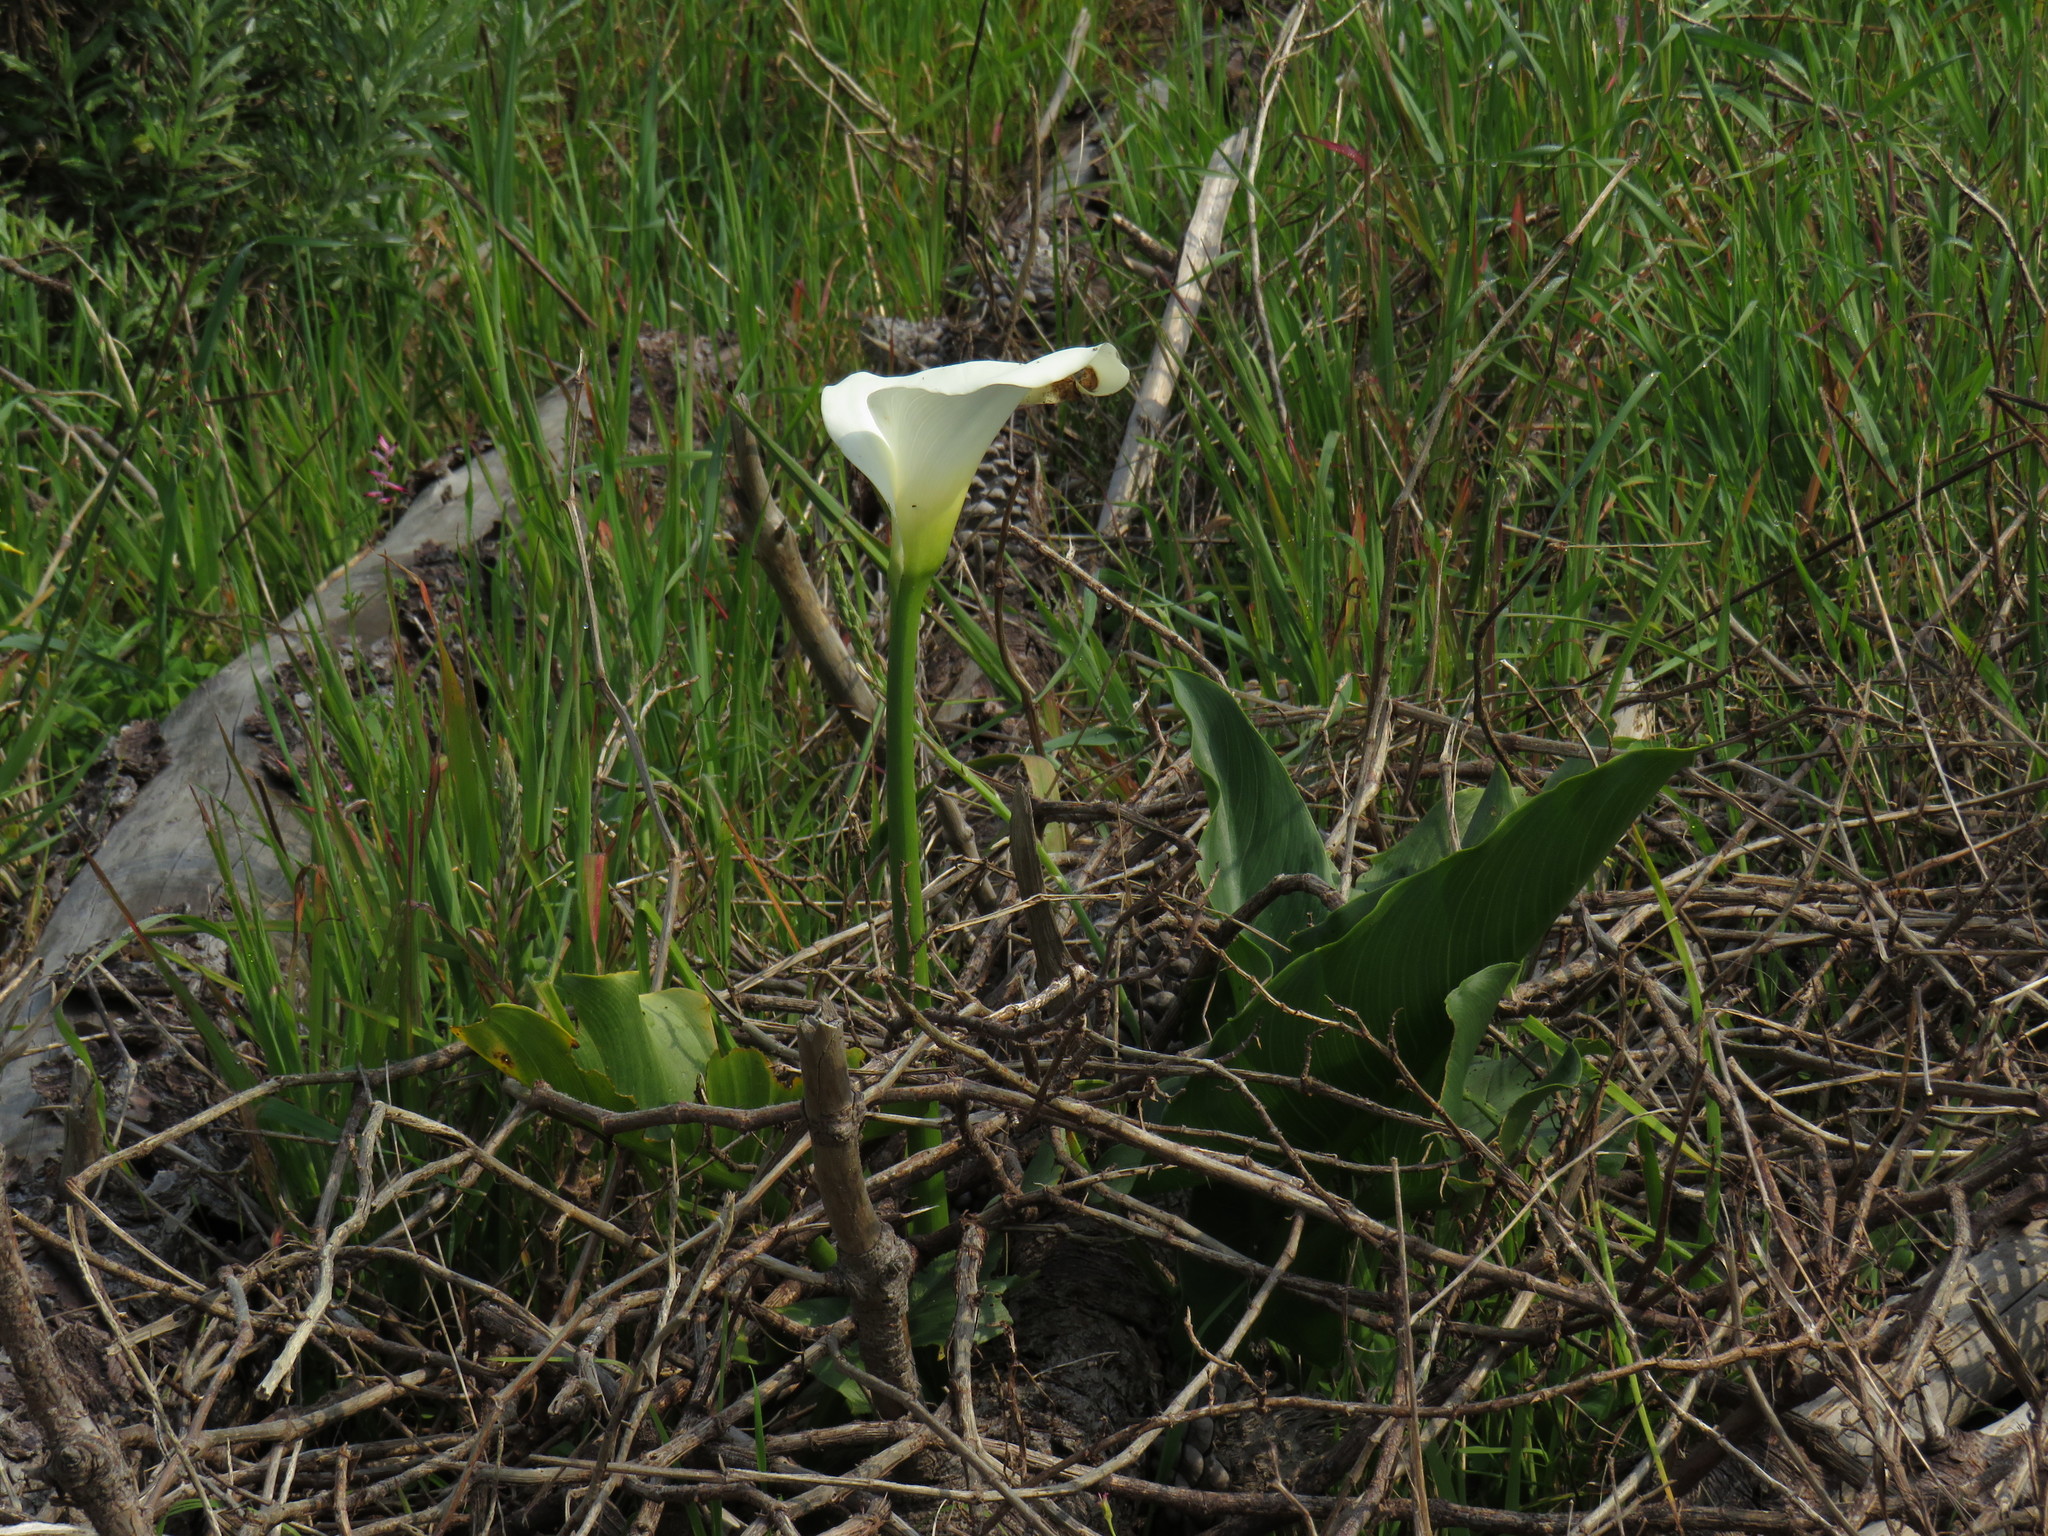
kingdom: Plantae
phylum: Tracheophyta
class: Liliopsida
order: Alismatales
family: Araceae
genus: Zantedeschia
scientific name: Zantedeschia aethiopica
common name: Altar-lily
